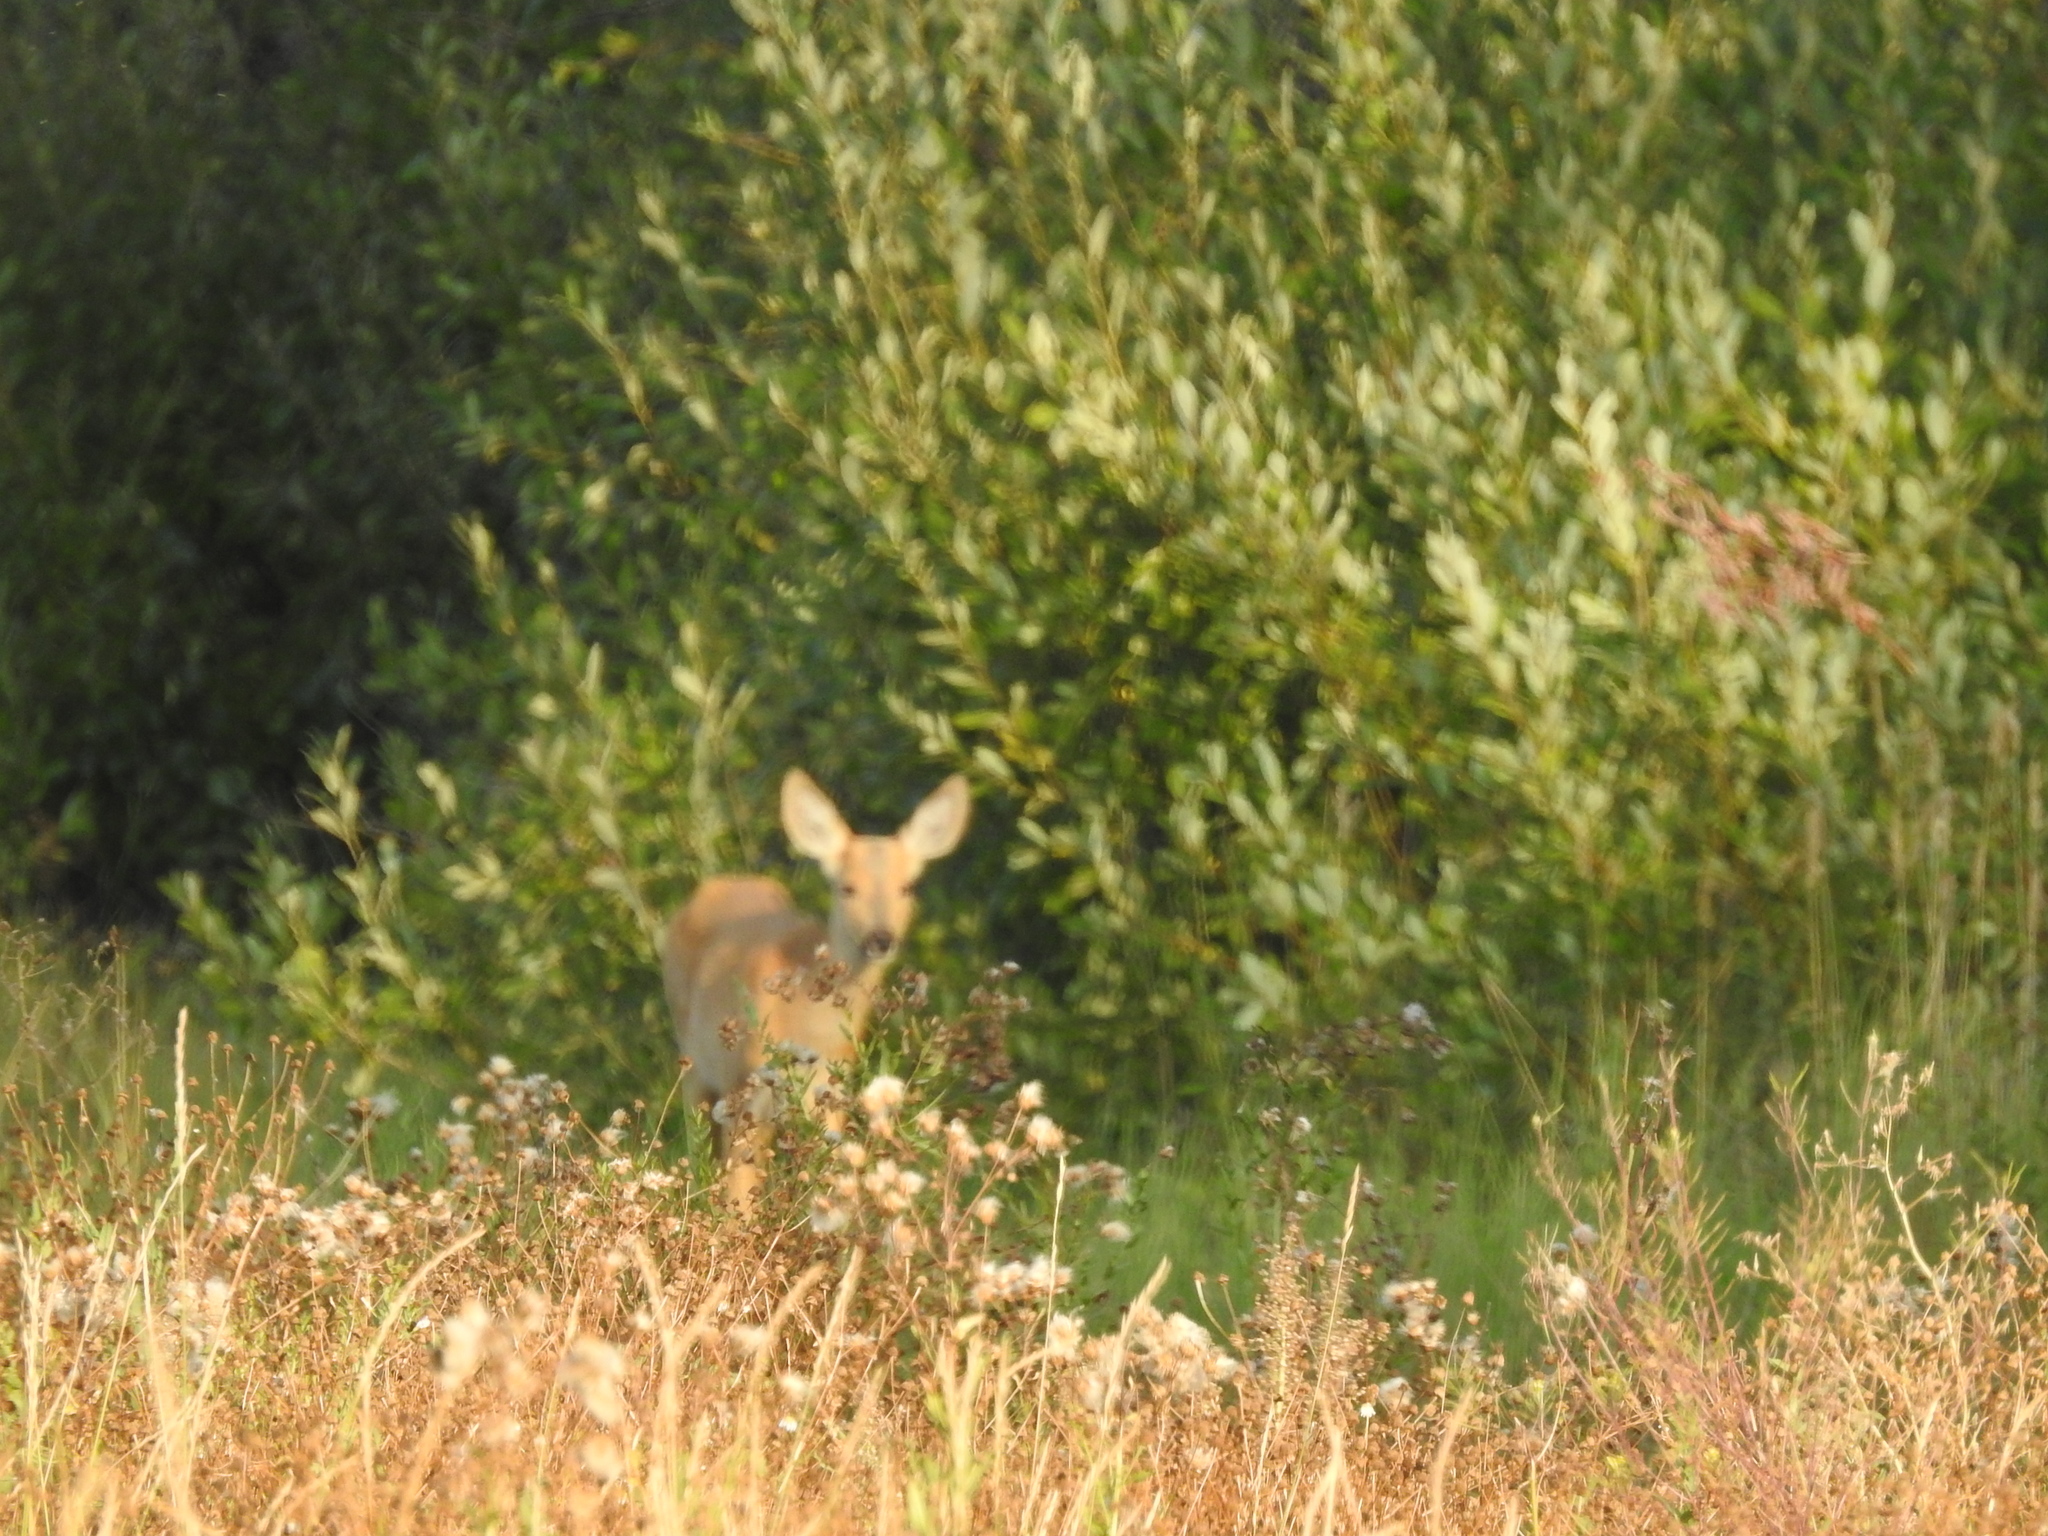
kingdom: Animalia
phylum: Chordata
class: Mammalia
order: Artiodactyla
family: Cervidae
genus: Capreolus
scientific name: Capreolus pygargus
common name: Siberian roe
